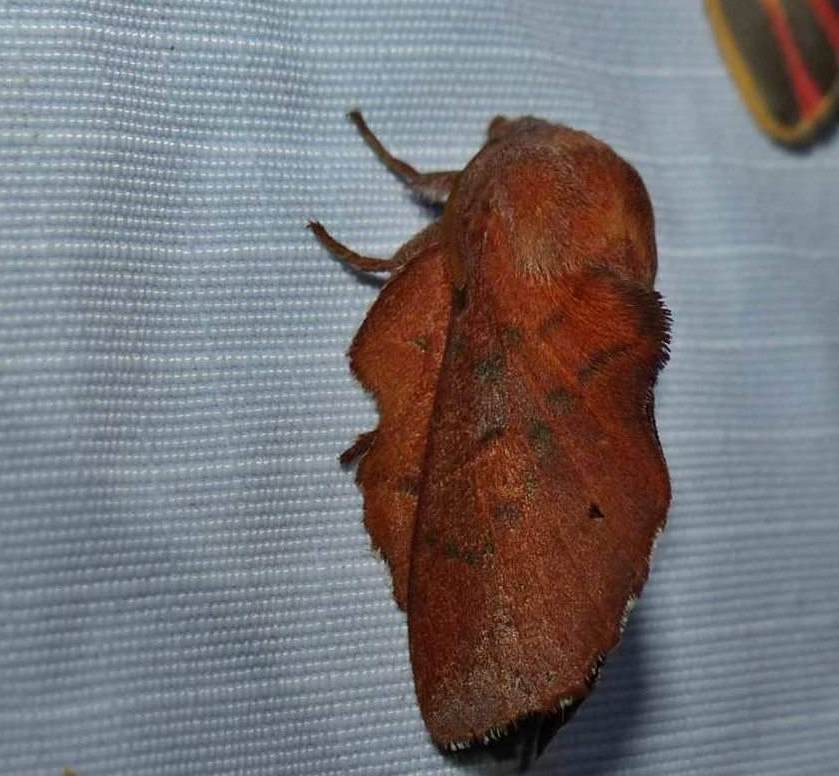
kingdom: Animalia
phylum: Arthropoda
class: Insecta
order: Lepidoptera
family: Lasiocampidae
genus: Phyllodesma
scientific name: Phyllodesma americana
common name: American lappet moth
